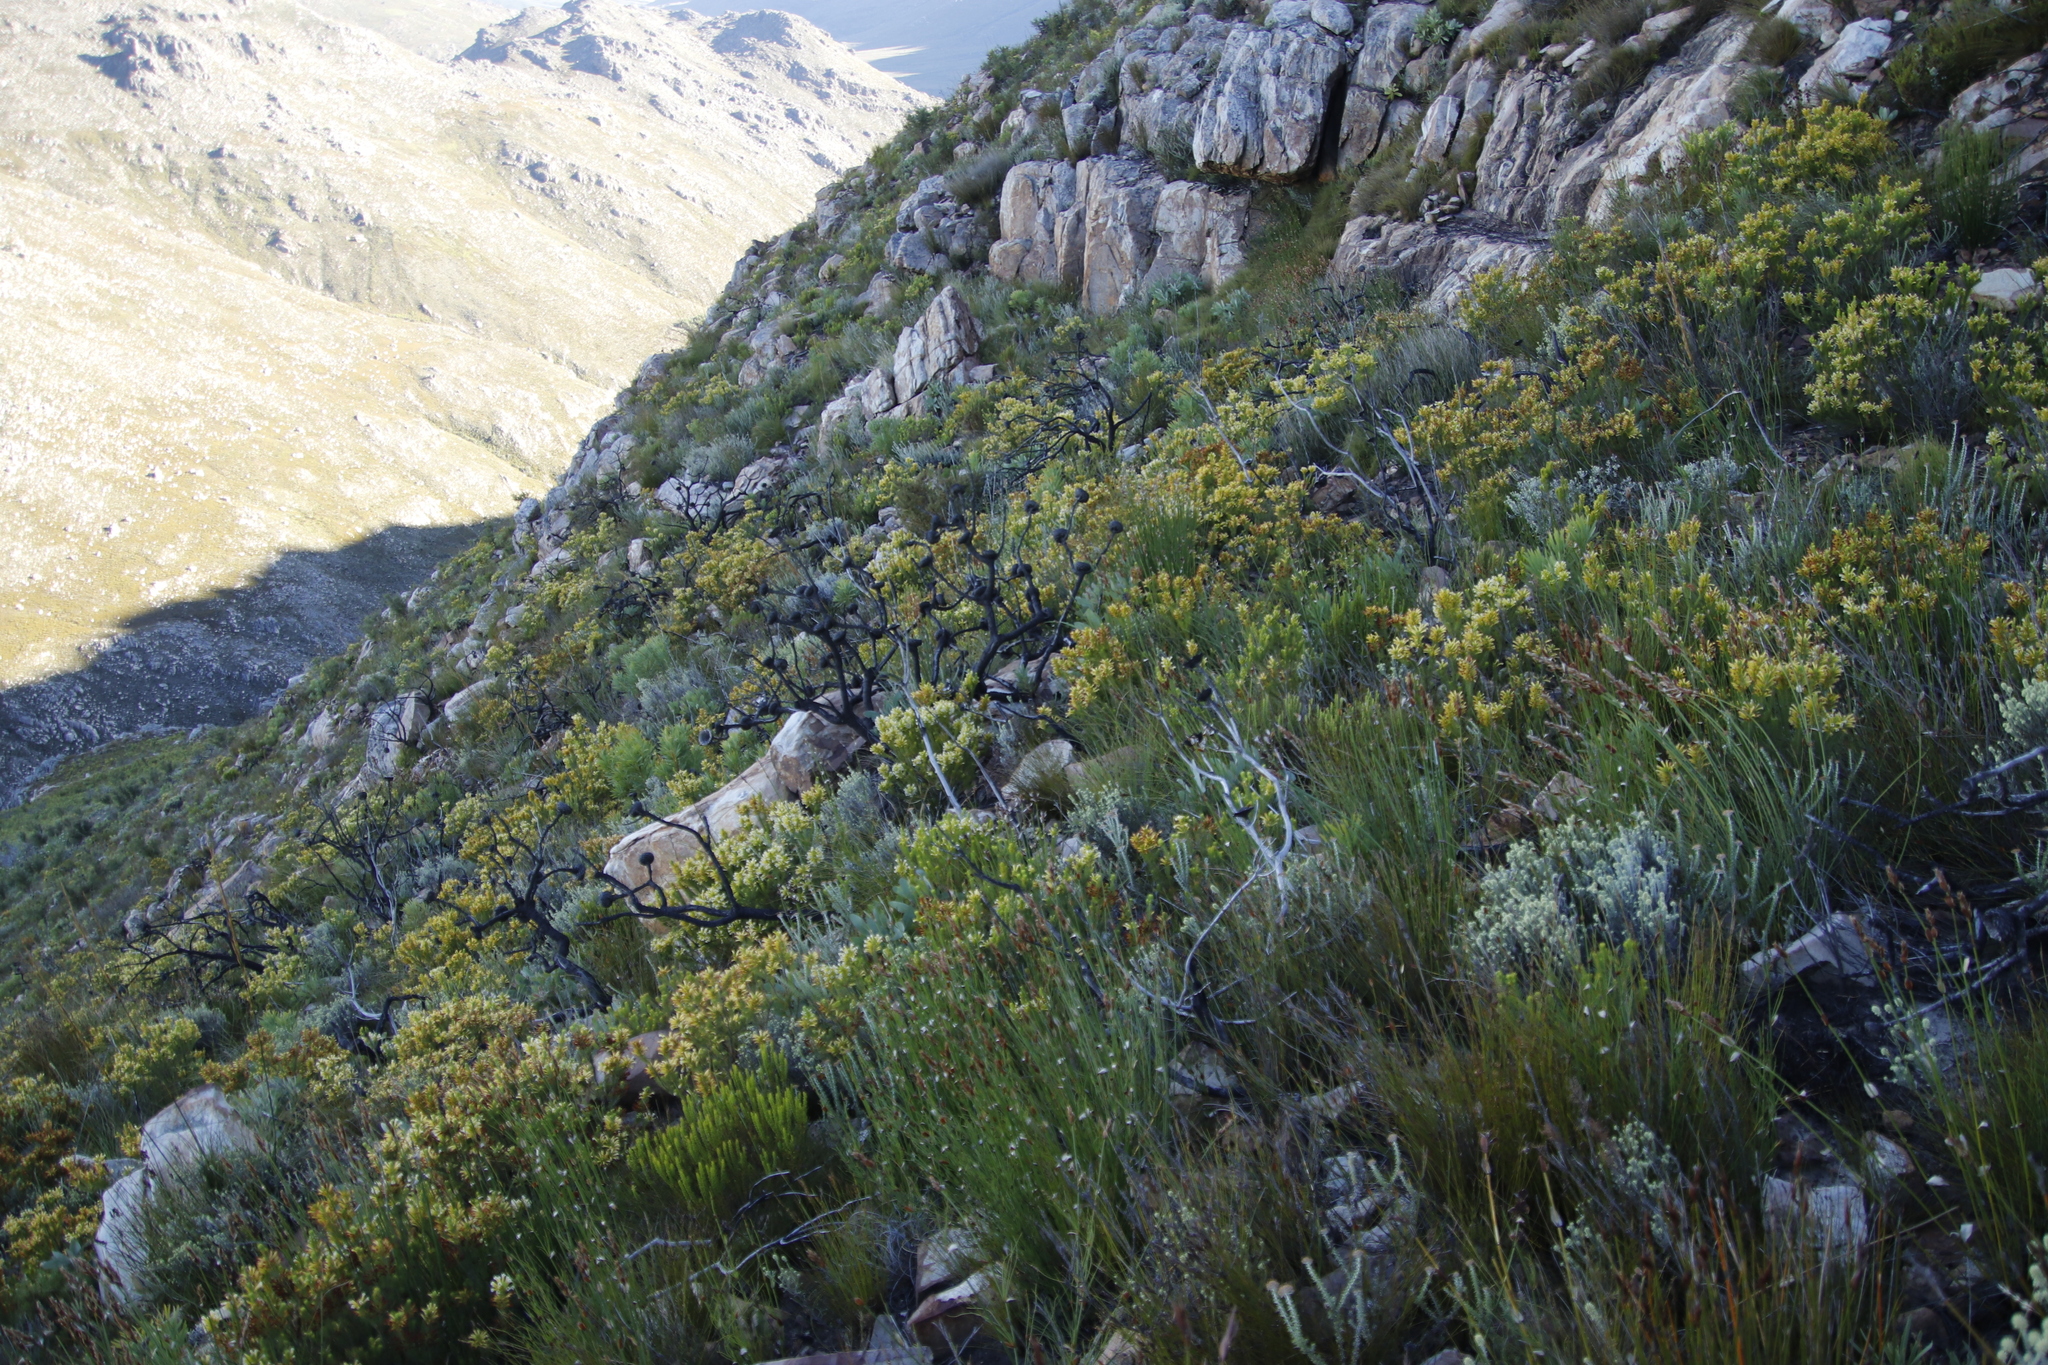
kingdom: Plantae
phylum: Tracheophyta
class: Magnoliopsida
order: Proteales
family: Proteaceae
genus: Protea
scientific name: Protea magnifica
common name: Bearded sugarbush
